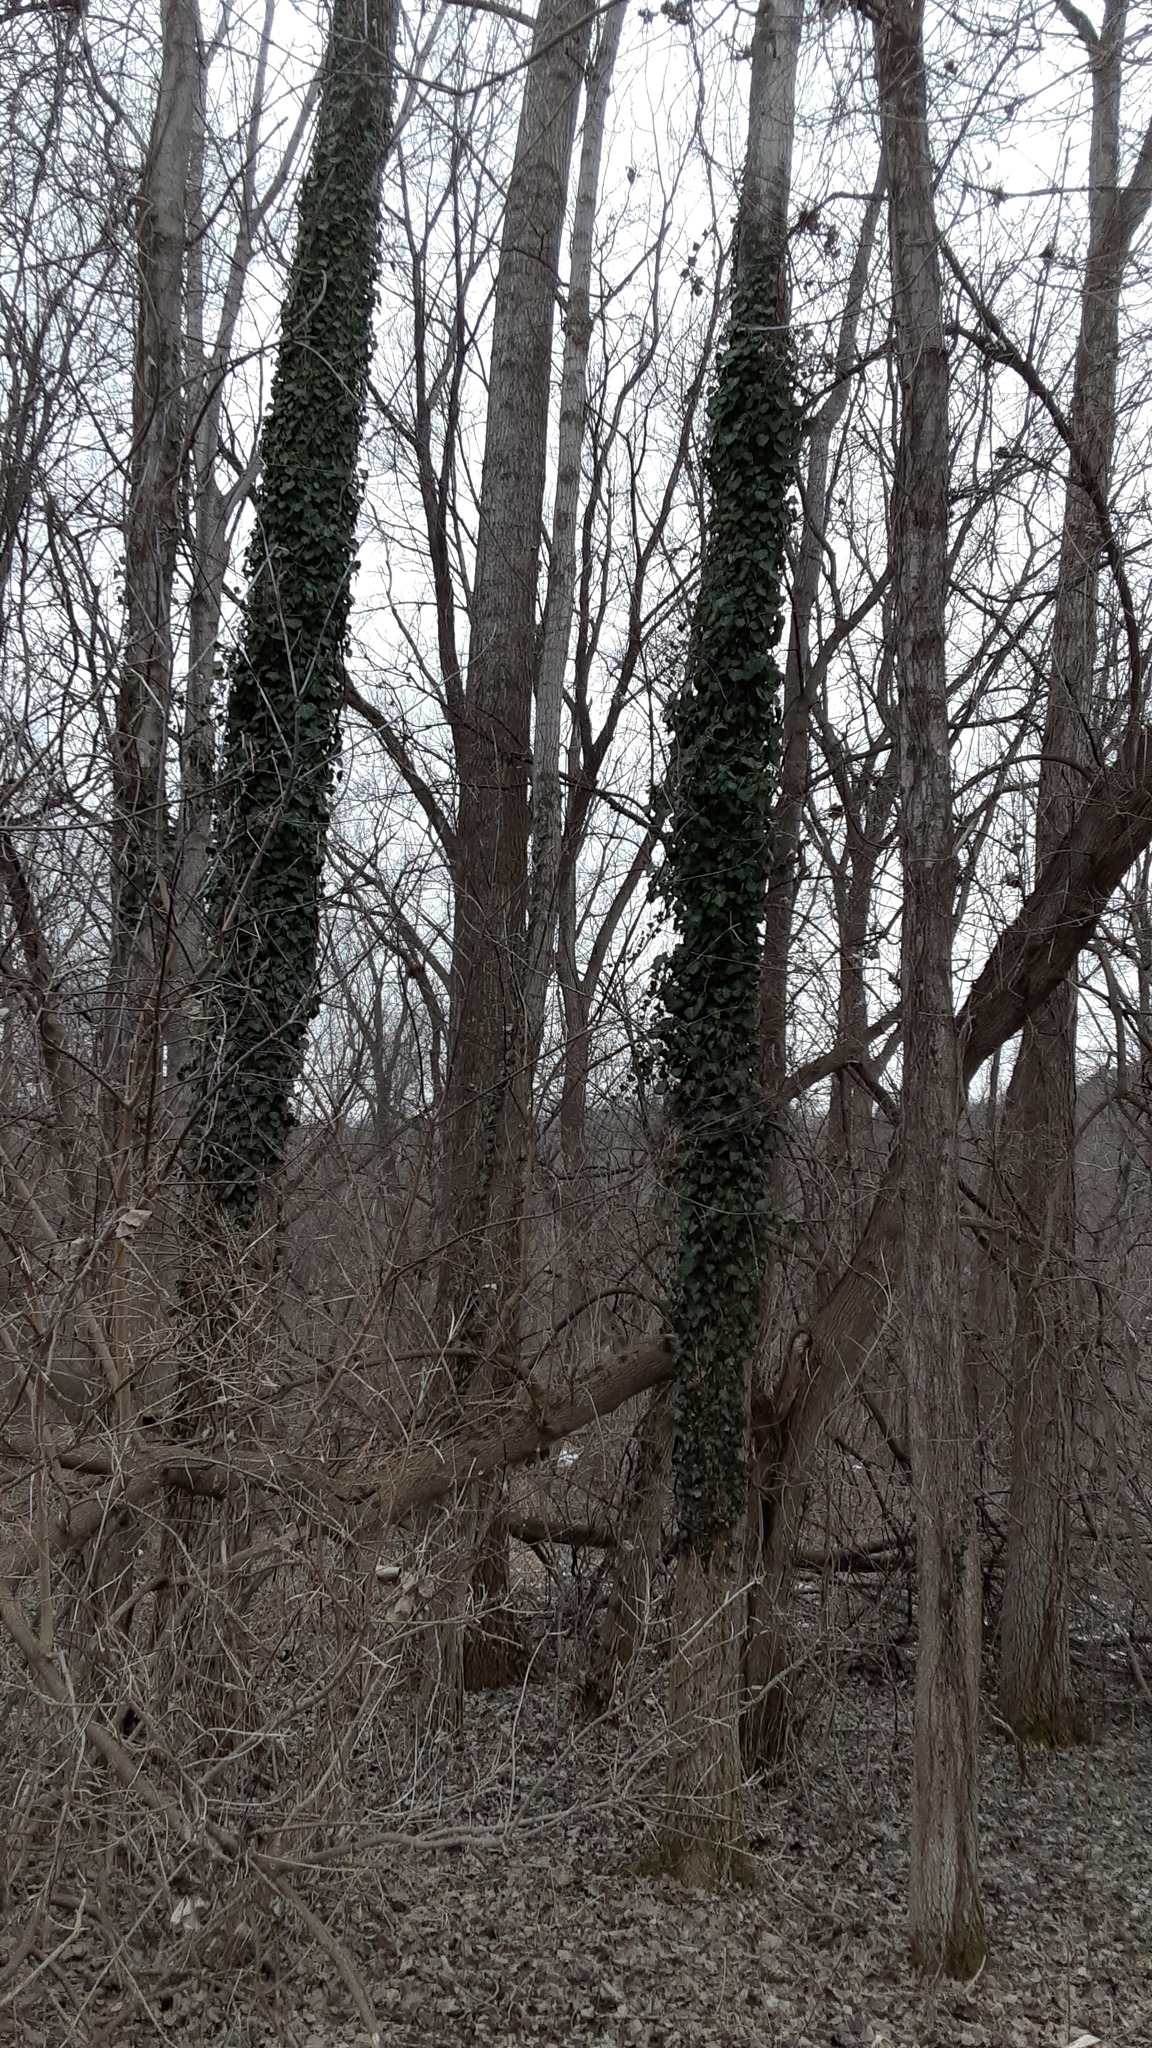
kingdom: Plantae
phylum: Tracheophyta
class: Magnoliopsida
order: Apiales
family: Araliaceae
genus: Hedera
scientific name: Hedera helix
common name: Ivy
